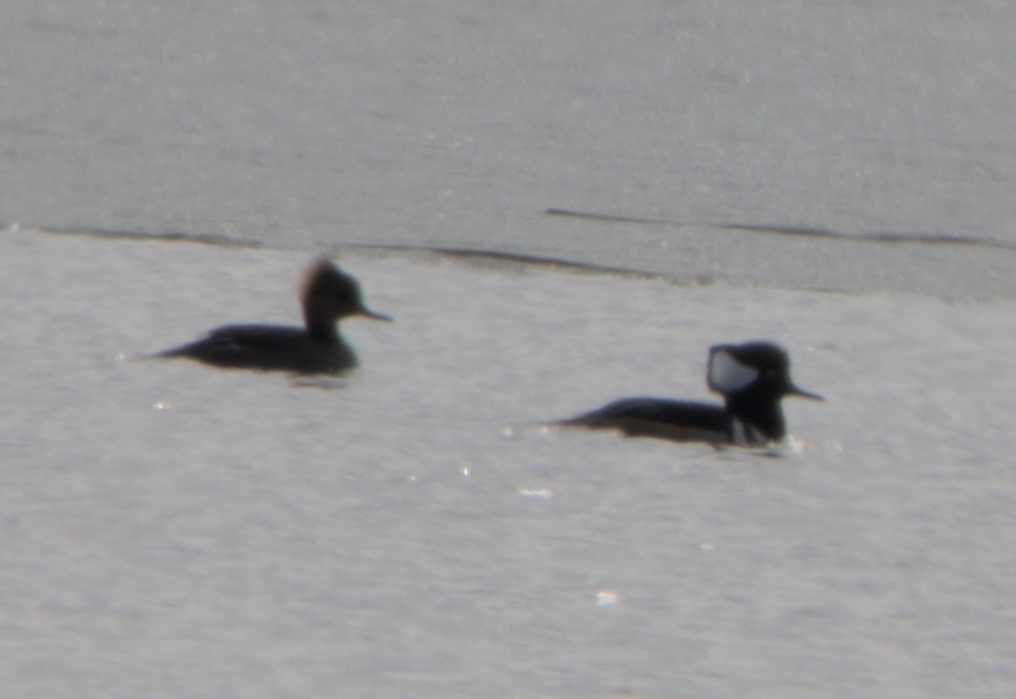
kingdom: Animalia
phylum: Chordata
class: Aves
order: Anseriformes
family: Anatidae
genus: Lophodytes
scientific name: Lophodytes cucullatus
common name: Hooded merganser
